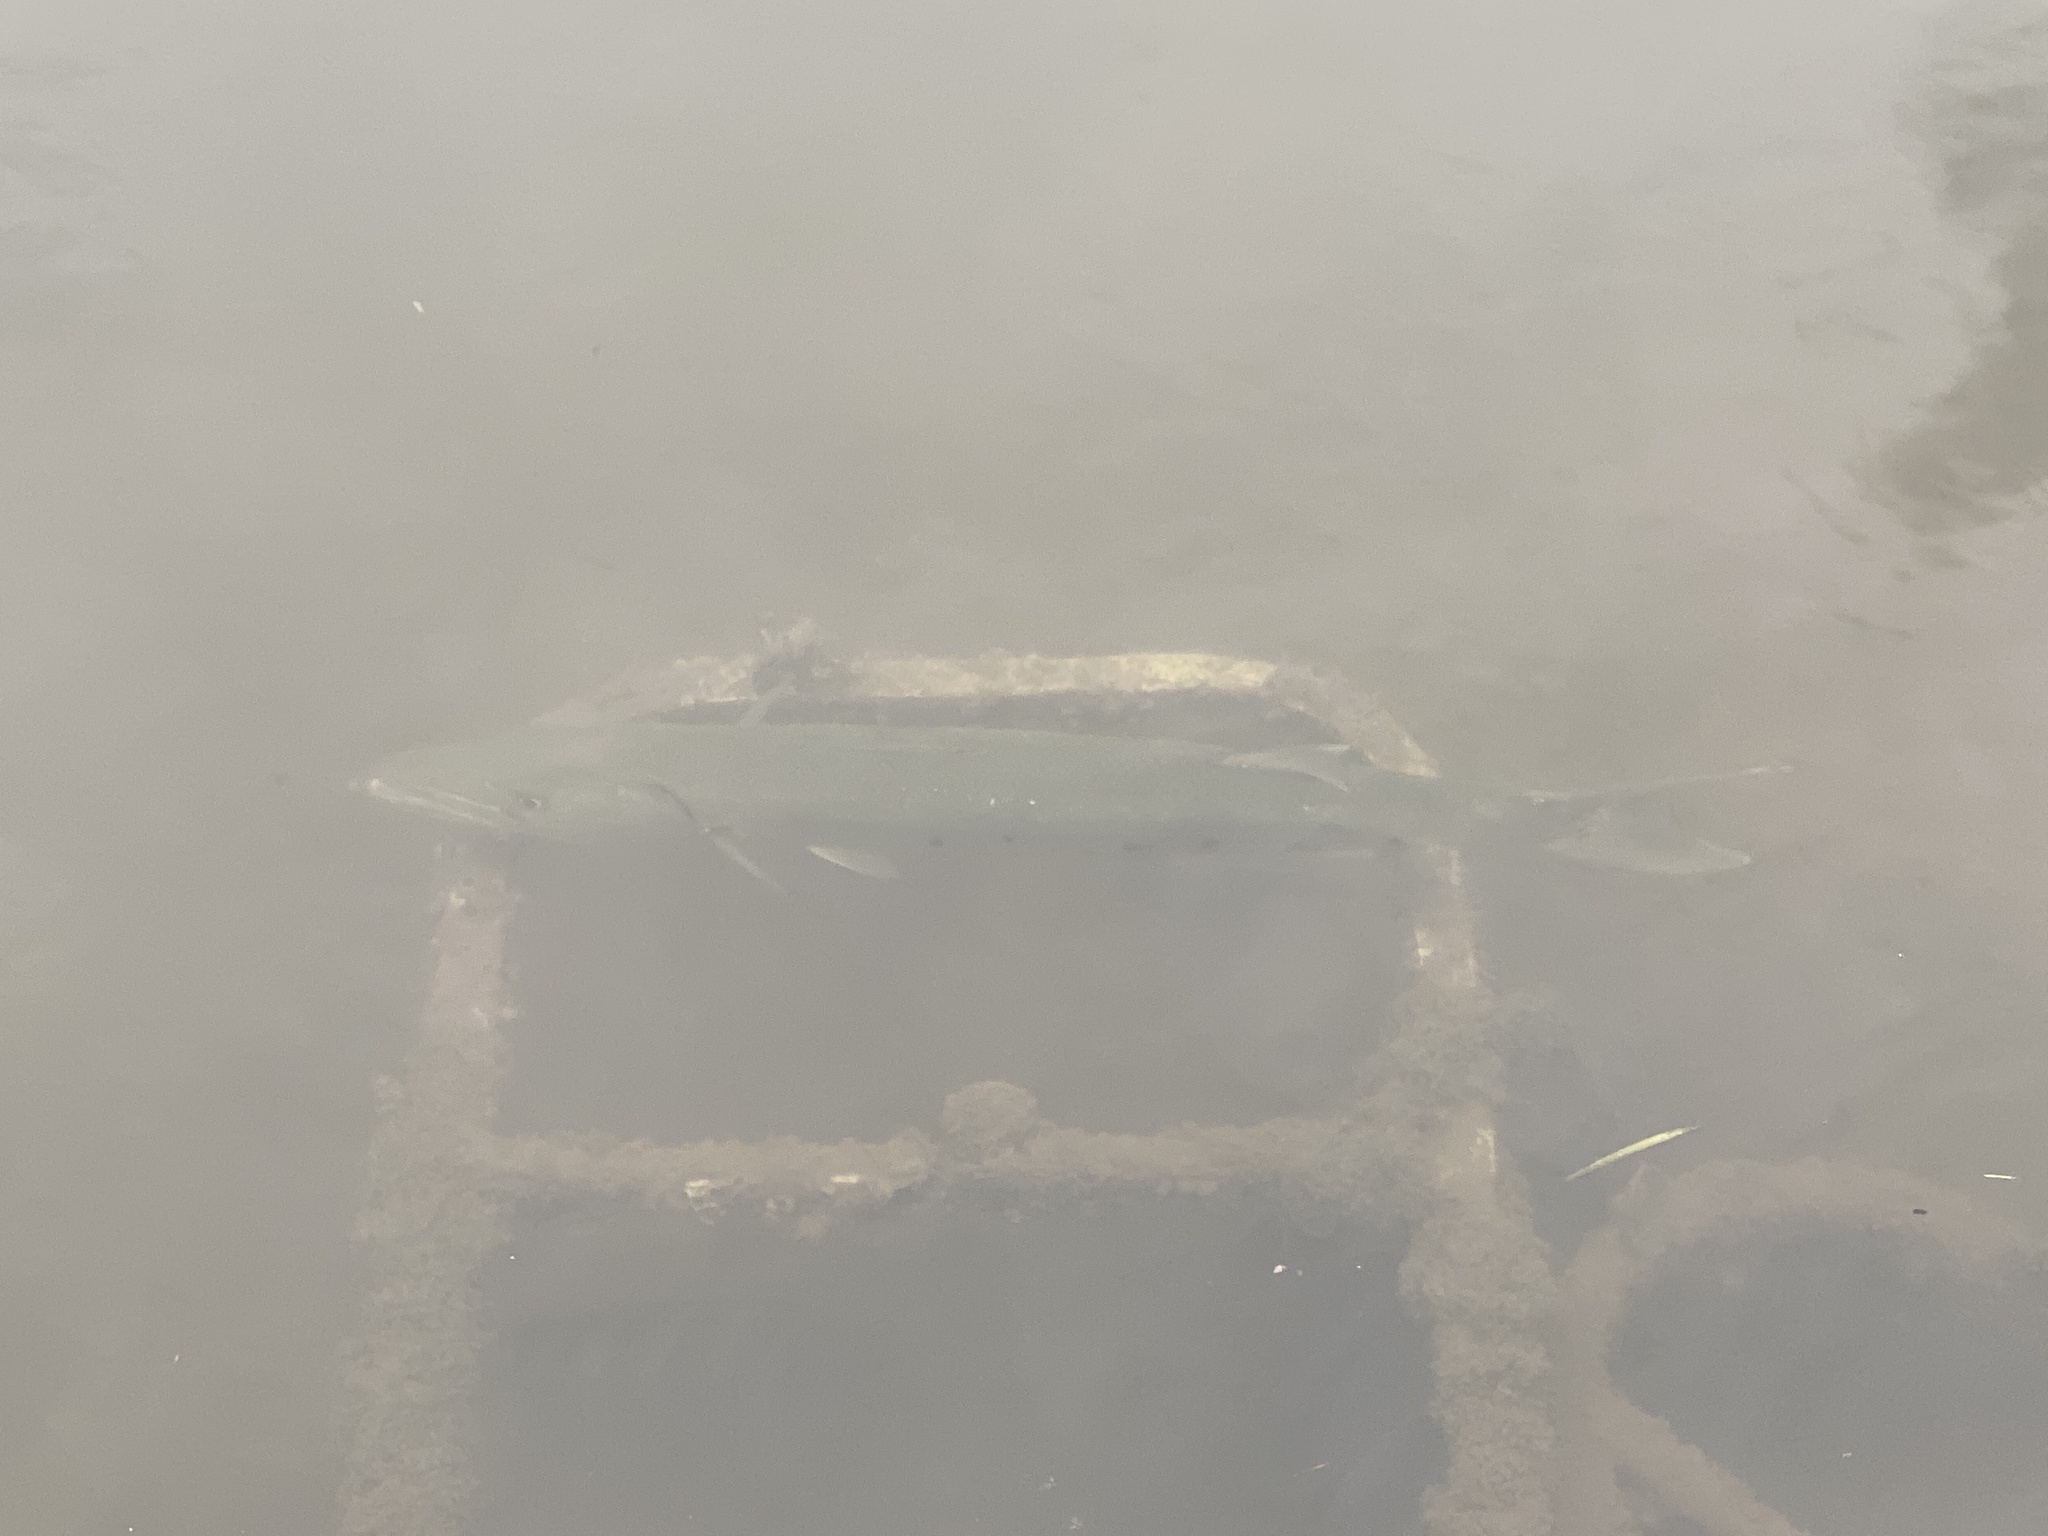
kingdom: Animalia
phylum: Chordata
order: Perciformes
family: Sphyraenidae
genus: Sphyraena
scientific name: Sphyraena barracuda
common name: Great barracuda
